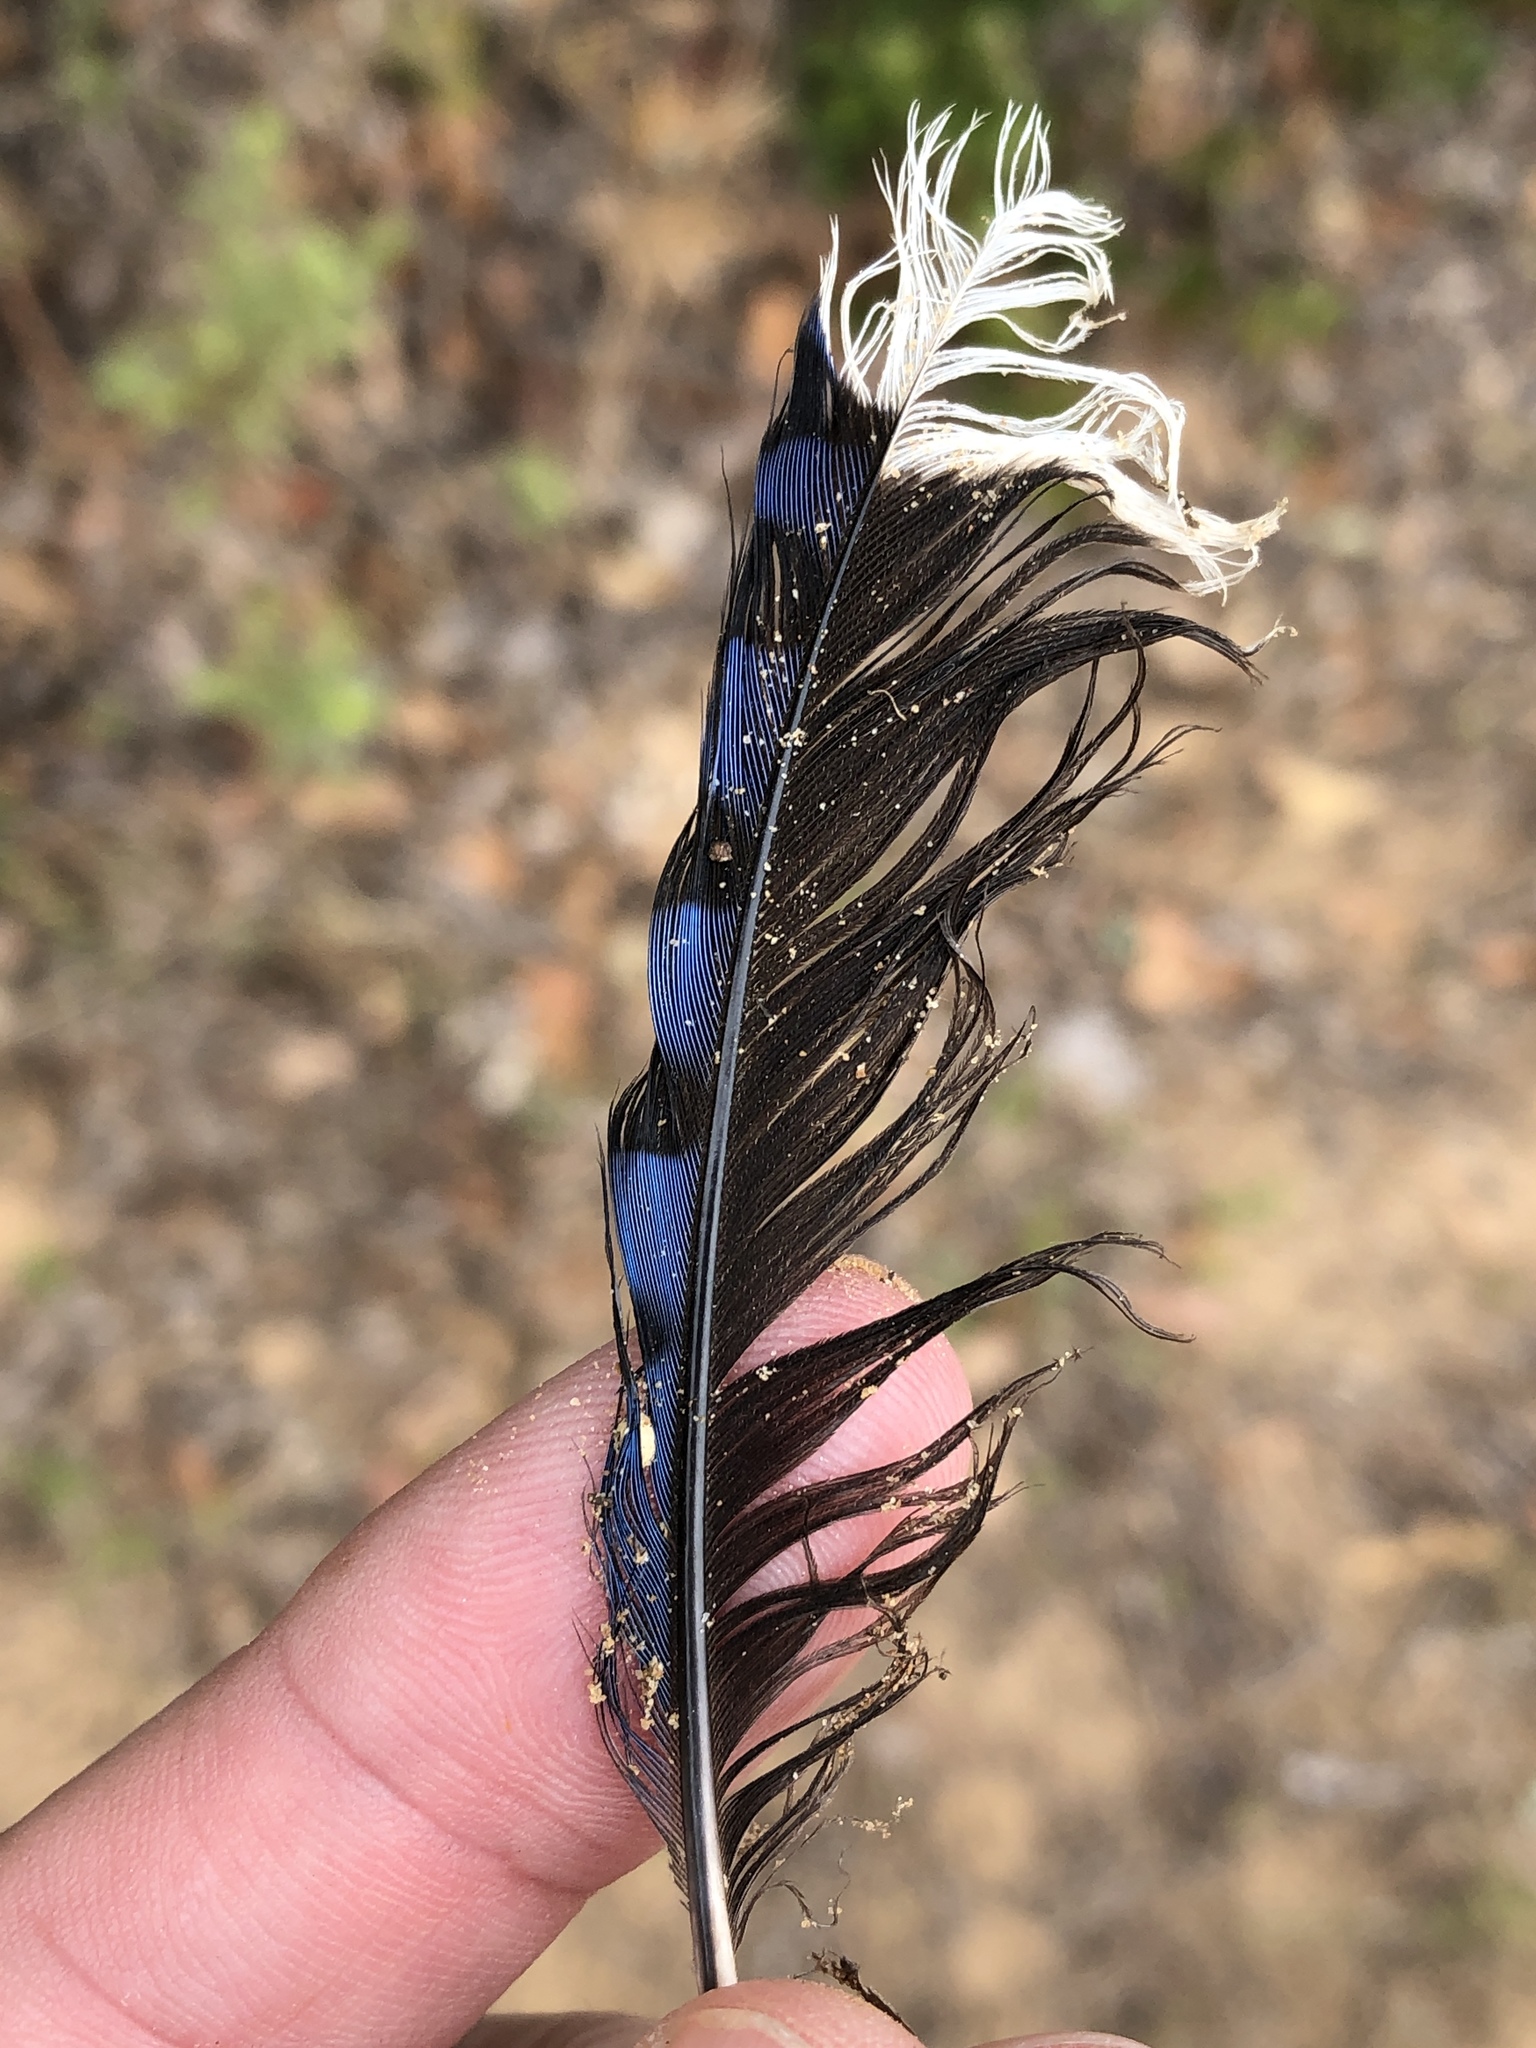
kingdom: Animalia
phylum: Chordata
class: Aves
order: Passeriformes
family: Corvidae
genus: Cyanocitta
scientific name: Cyanocitta cristata
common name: Blue jay
